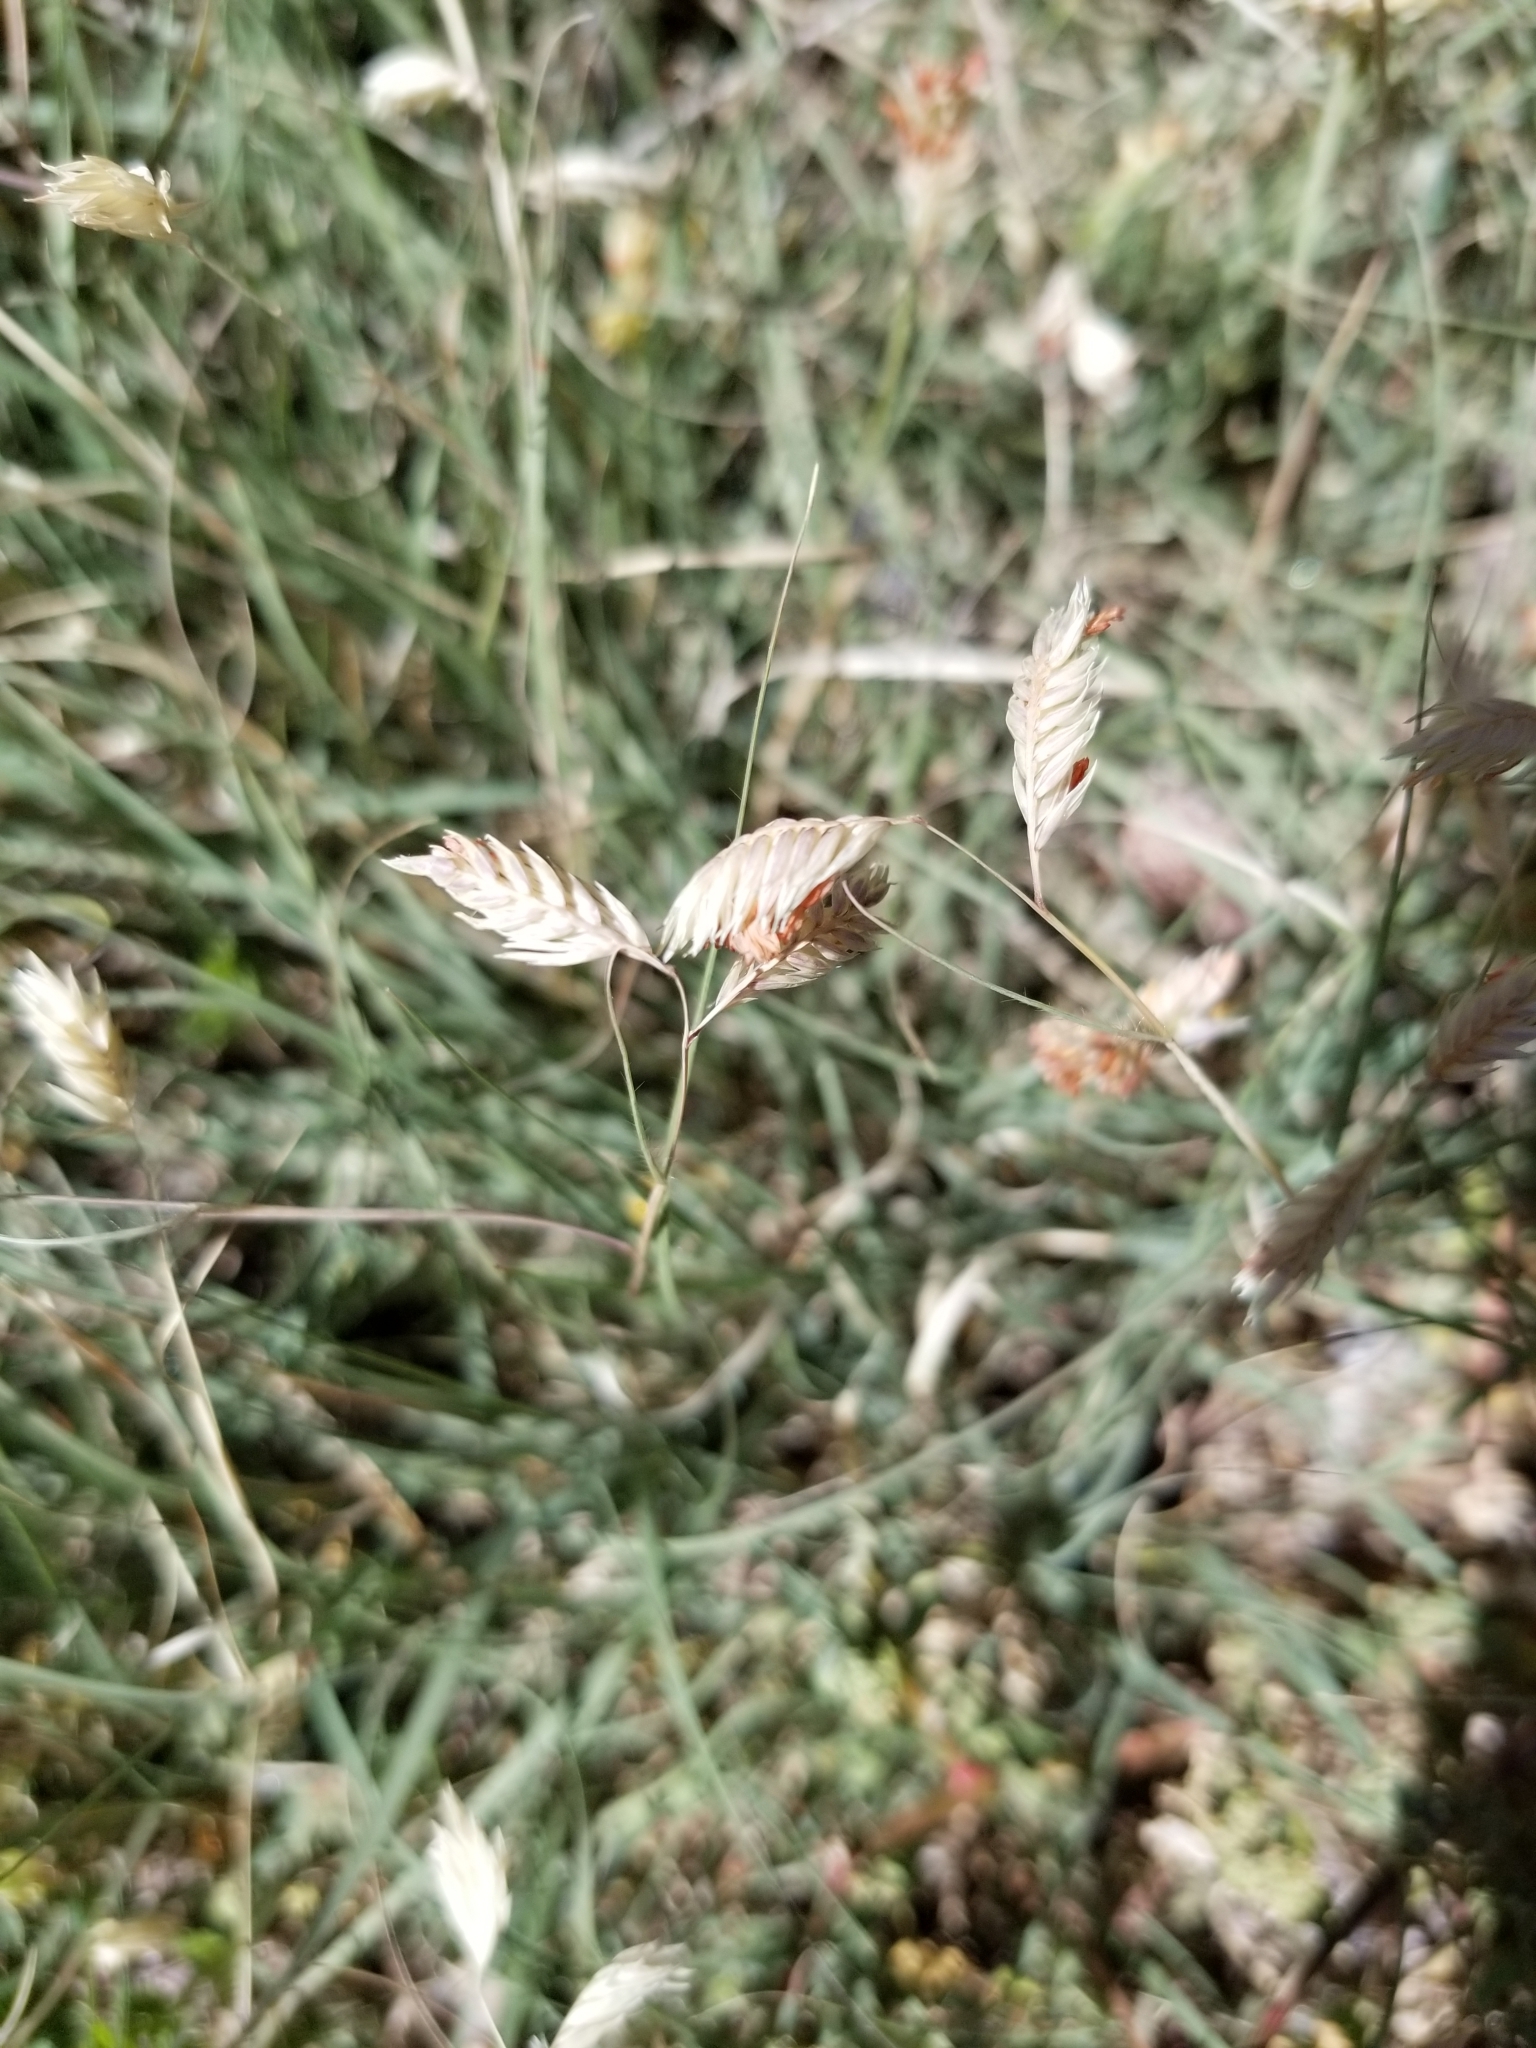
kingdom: Plantae
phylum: Tracheophyta
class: Liliopsida
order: Poales
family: Poaceae
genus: Bouteloua
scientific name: Bouteloua dactyloides
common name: Buffalo grass
